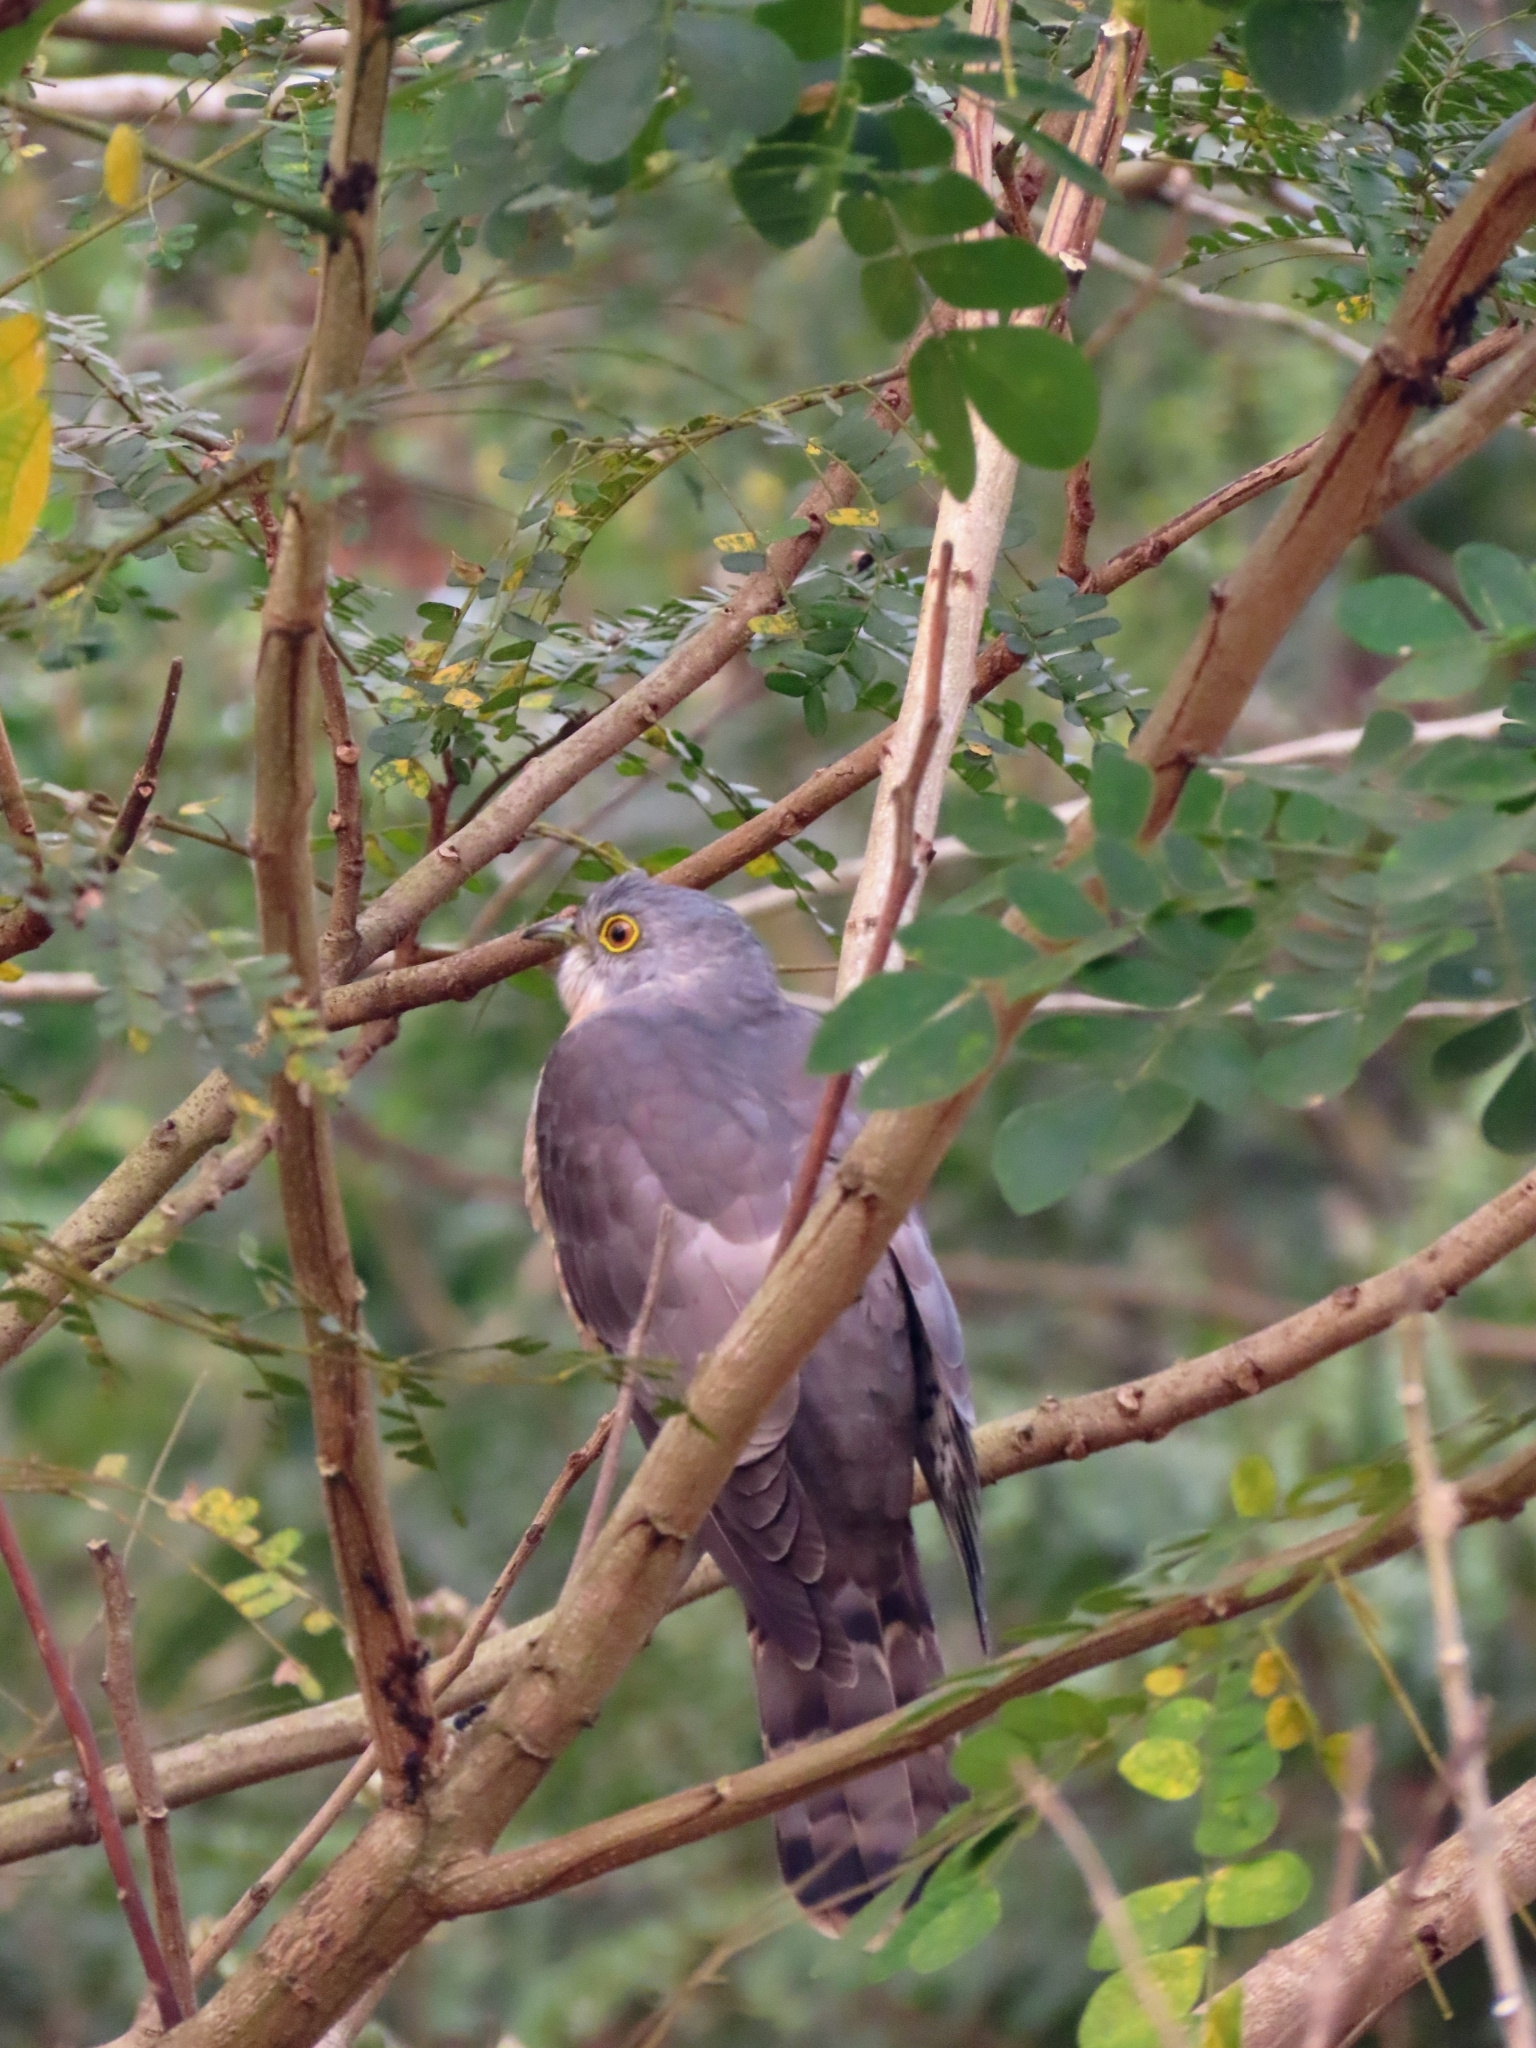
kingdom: Animalia
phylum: Chordata
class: Aves
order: Cuculiformes
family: Cuculidae
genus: Cuculus
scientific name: Cuculus varius
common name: Common hawk cuckoo
